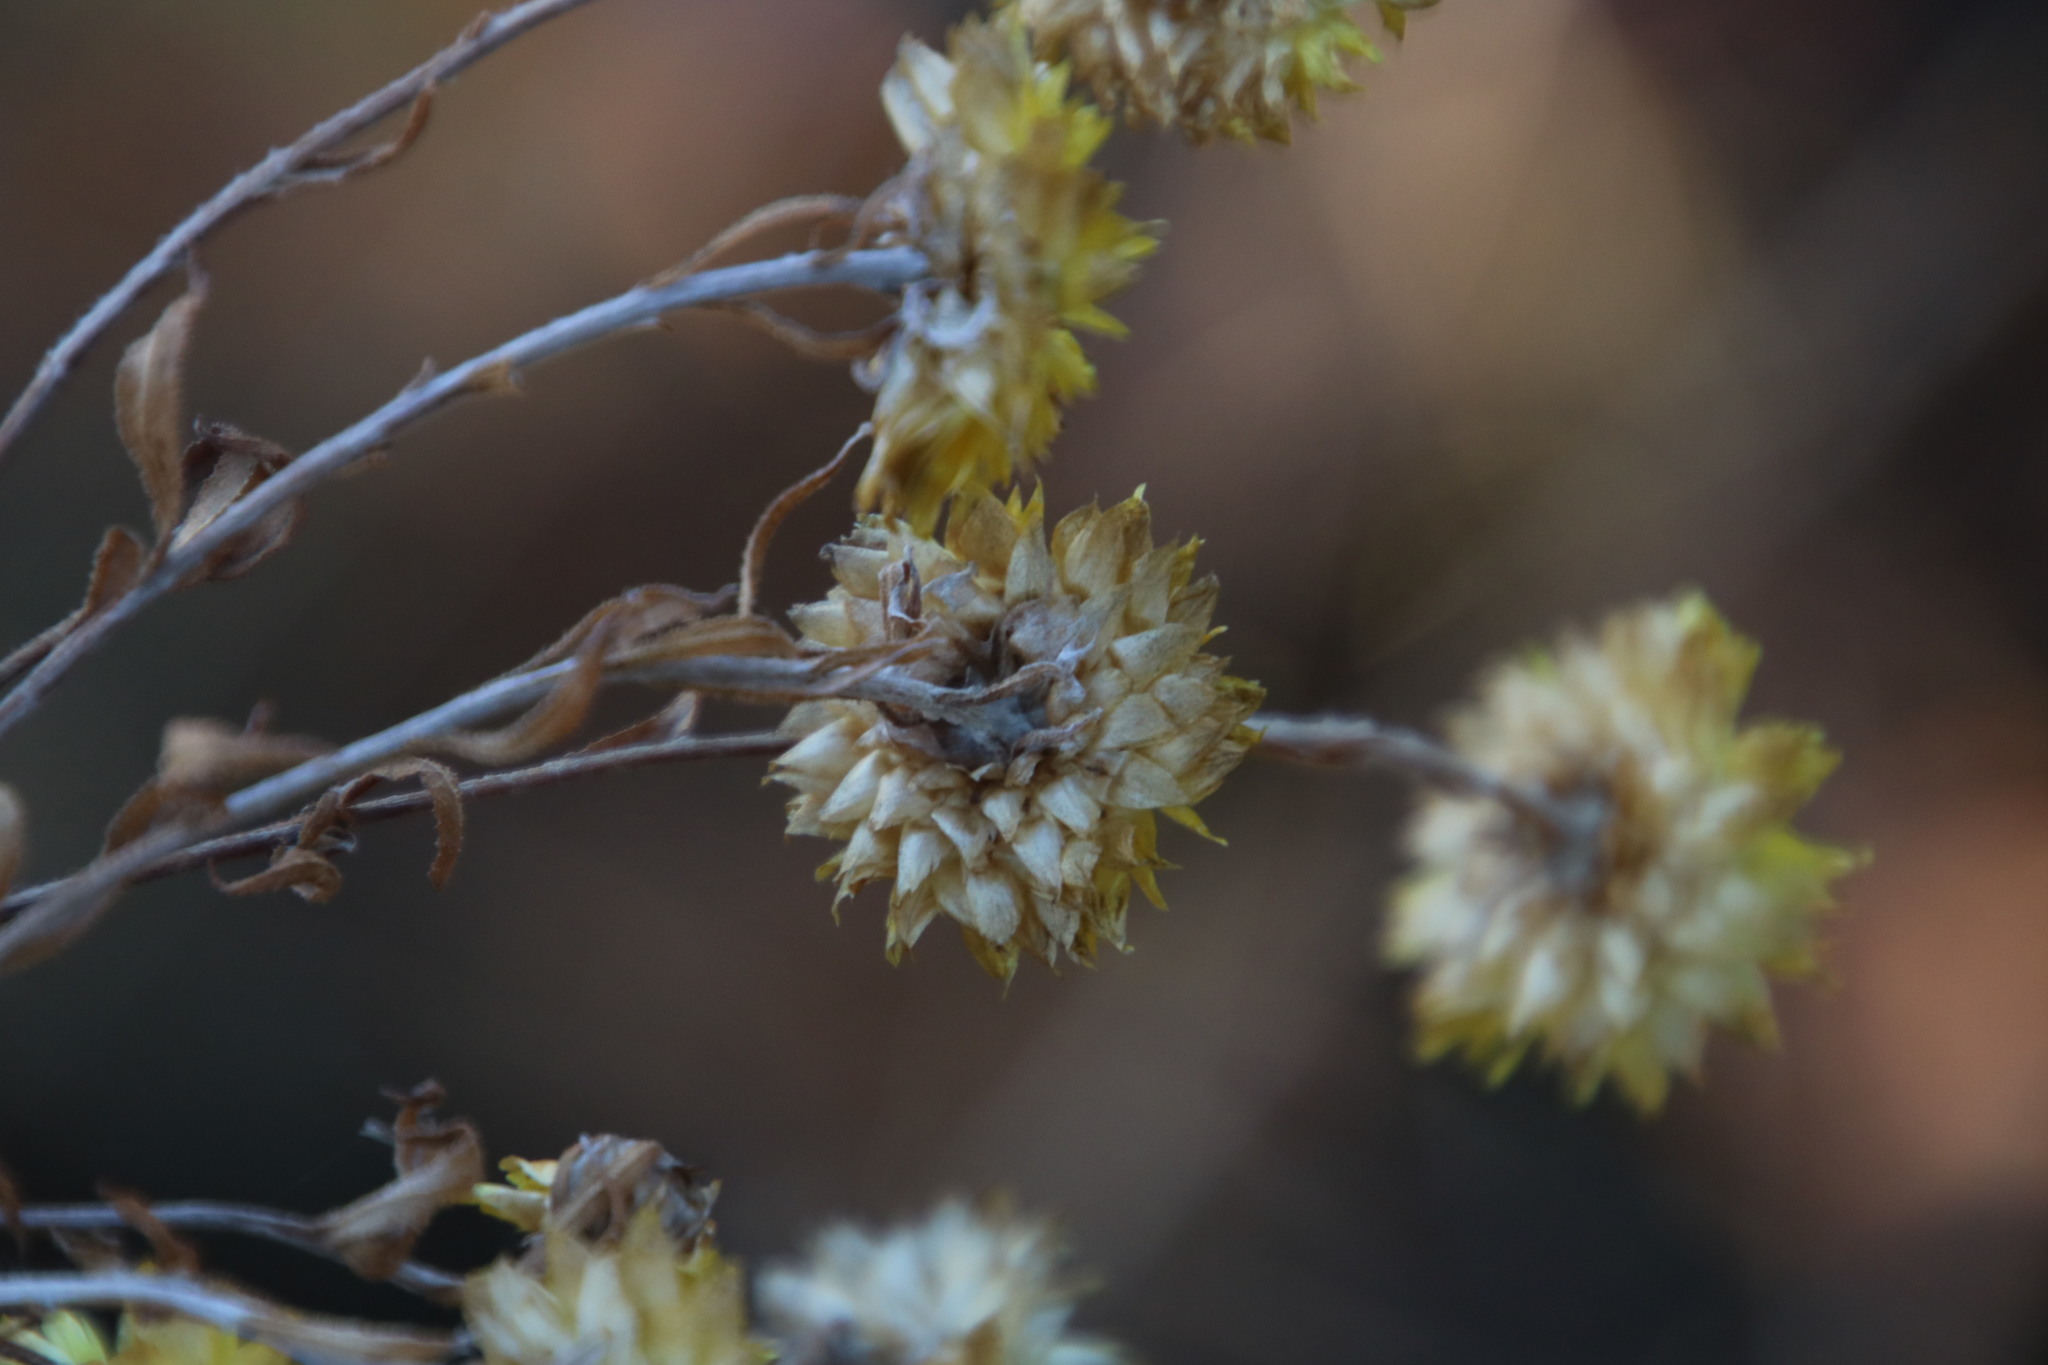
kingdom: Plantae
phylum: Tracheophyta
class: Magnoliopsida
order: Asterales
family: Asteraceae
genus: Helichrysum
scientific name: Helichrysum setosum
